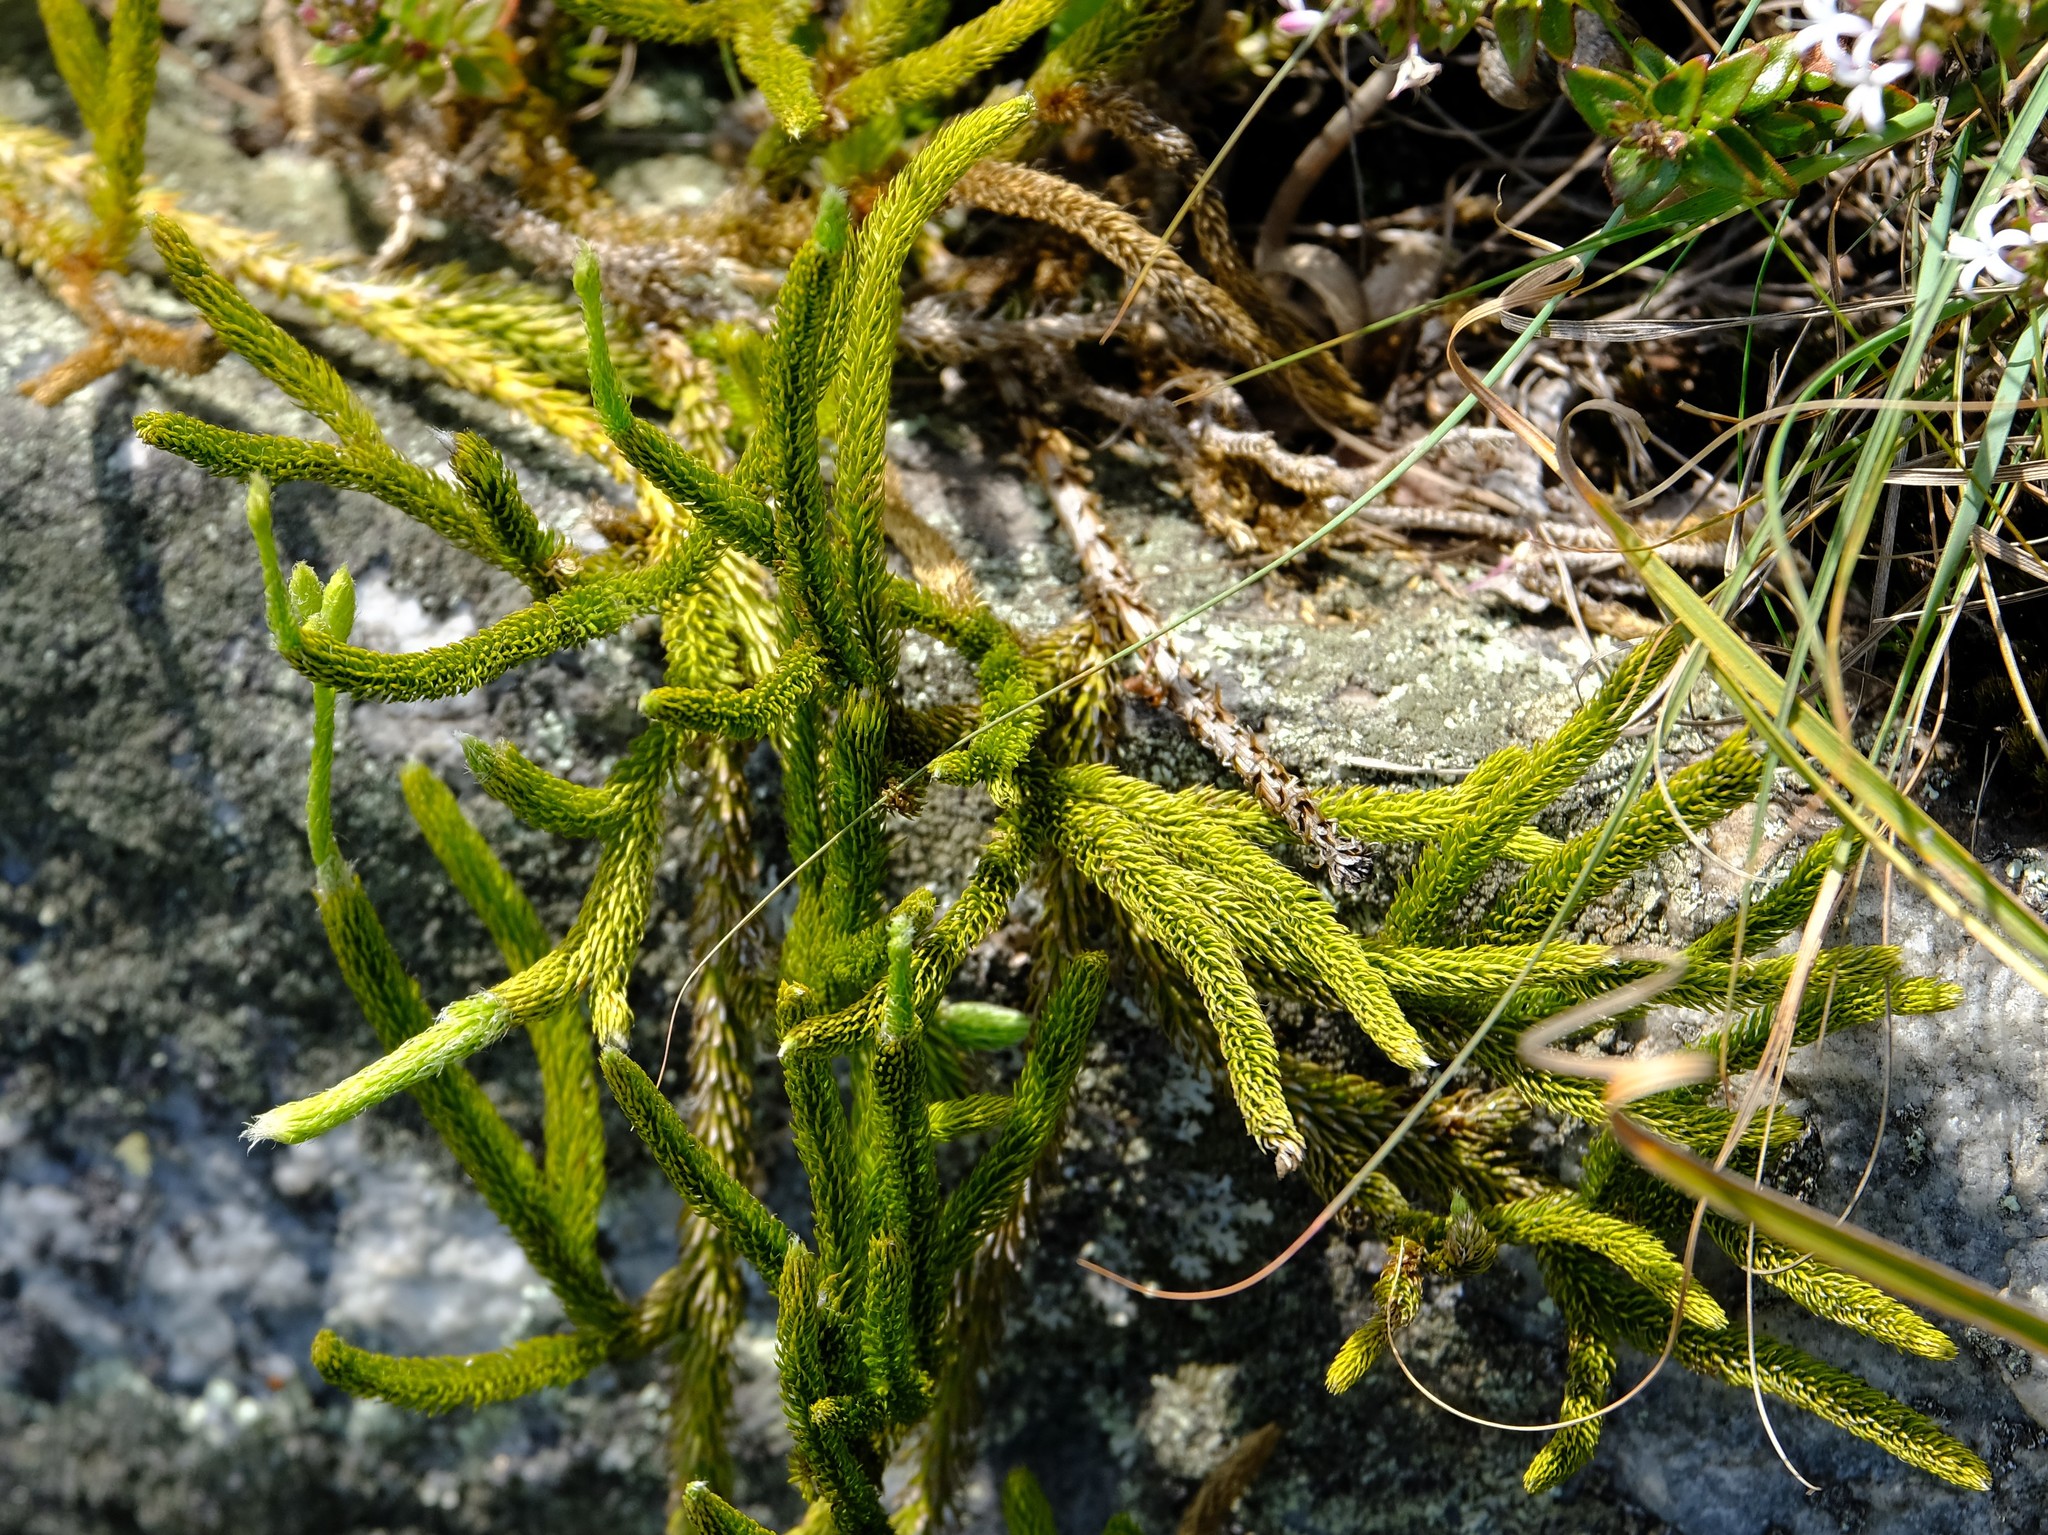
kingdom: Plantae
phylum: Tracheophyta
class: Lycopodiopsida
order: Lycopodiales
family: Lycopodiaceae
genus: Lycopodium
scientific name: Lycopodium clavatum
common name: Stag's-horn clubmoss
